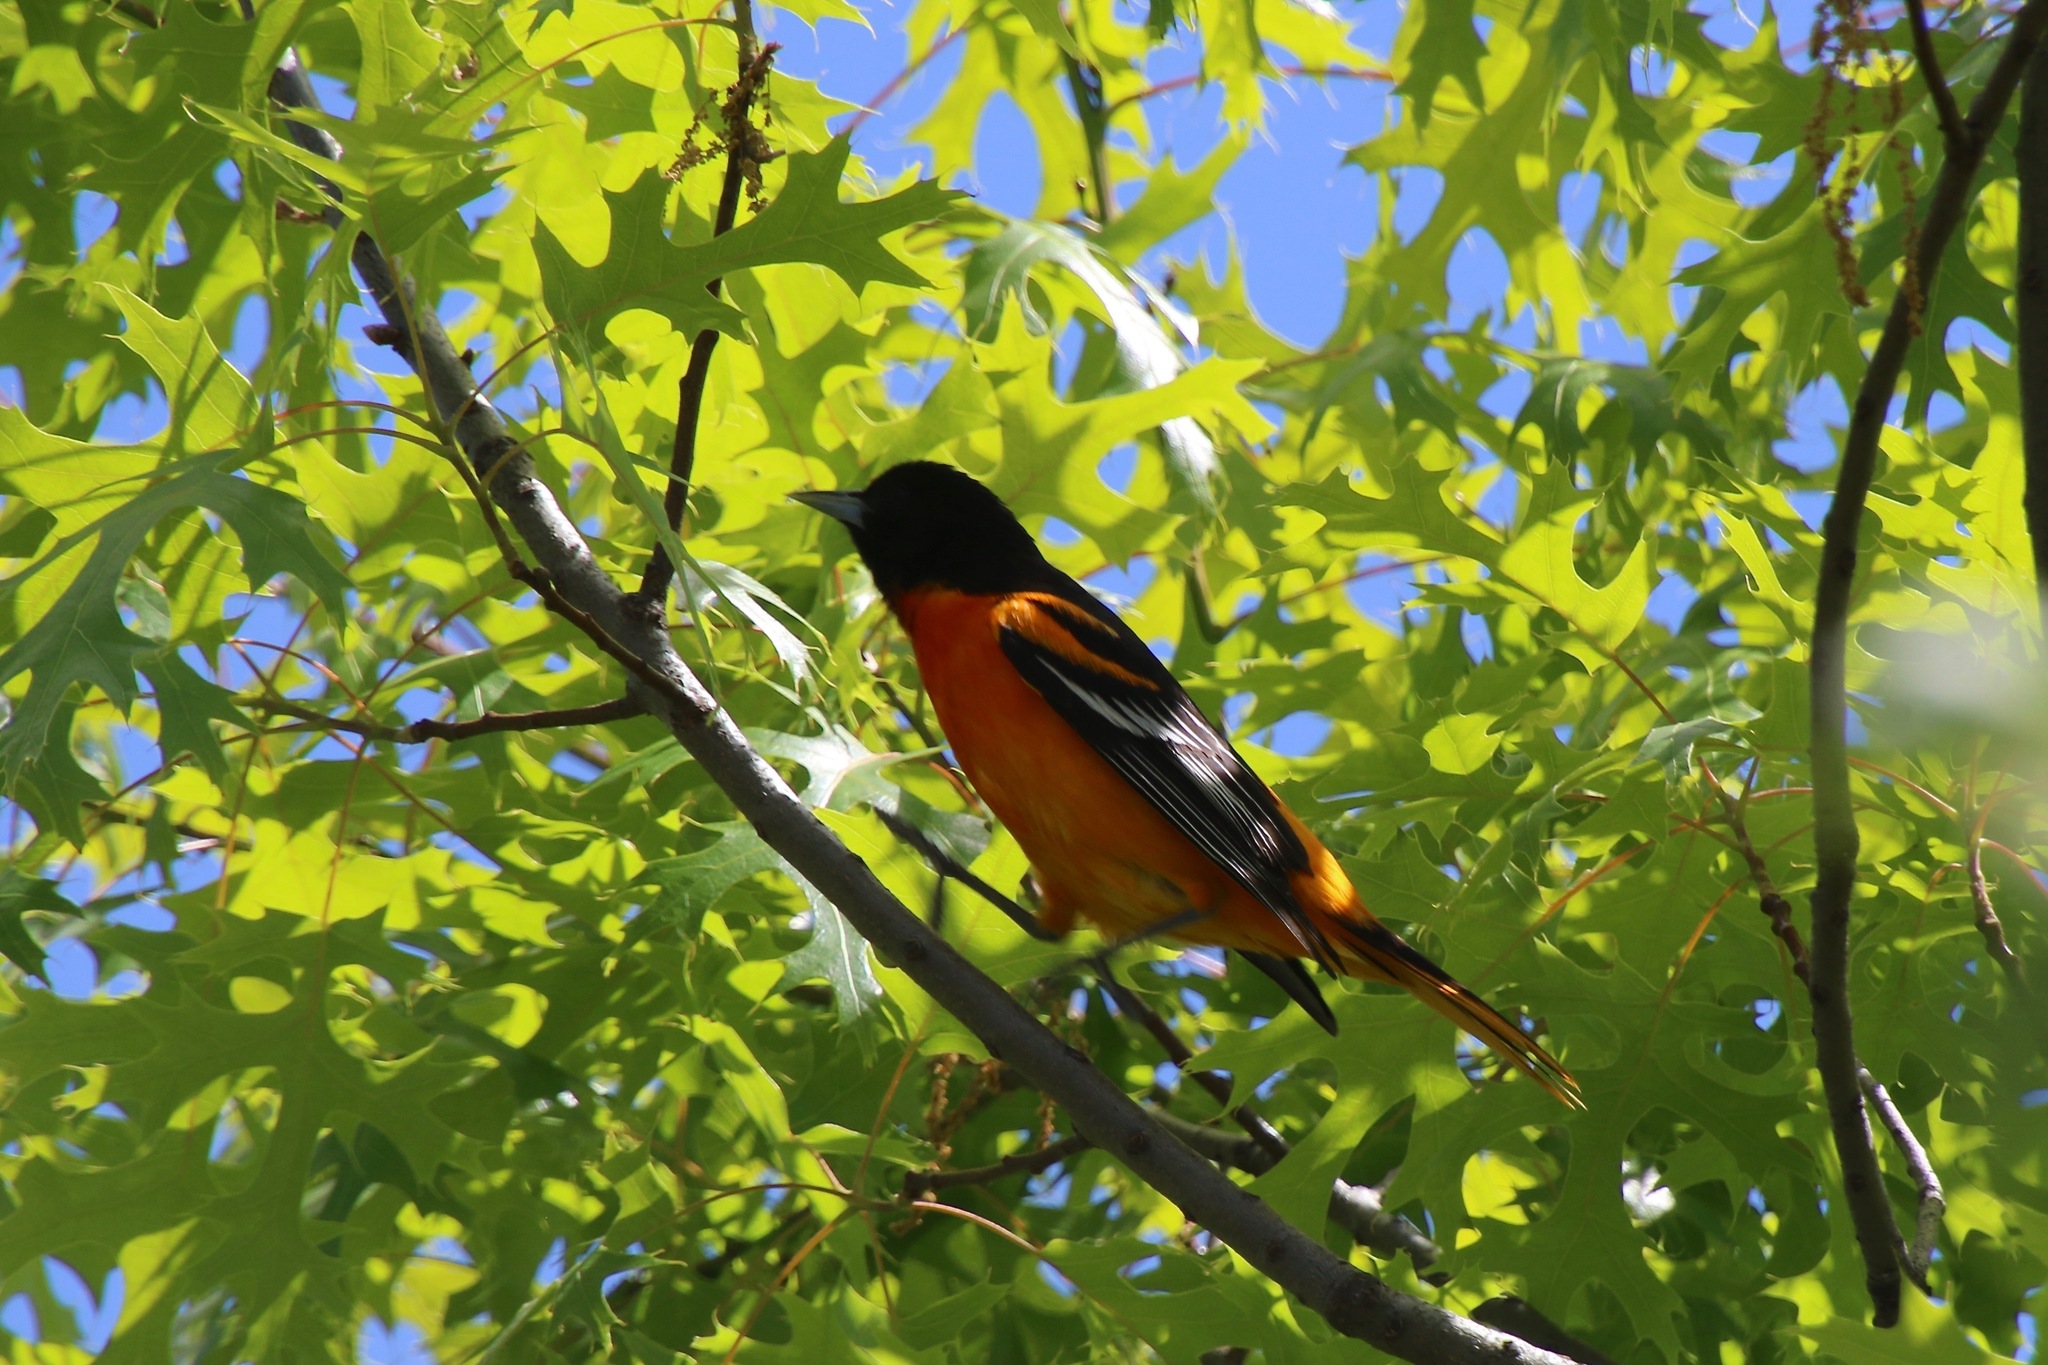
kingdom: Animalia
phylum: Chordata
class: Aves
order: Passeriformes
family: Icteridae
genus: Icterus
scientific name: Icterus galbula
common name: Baltimore oriole
